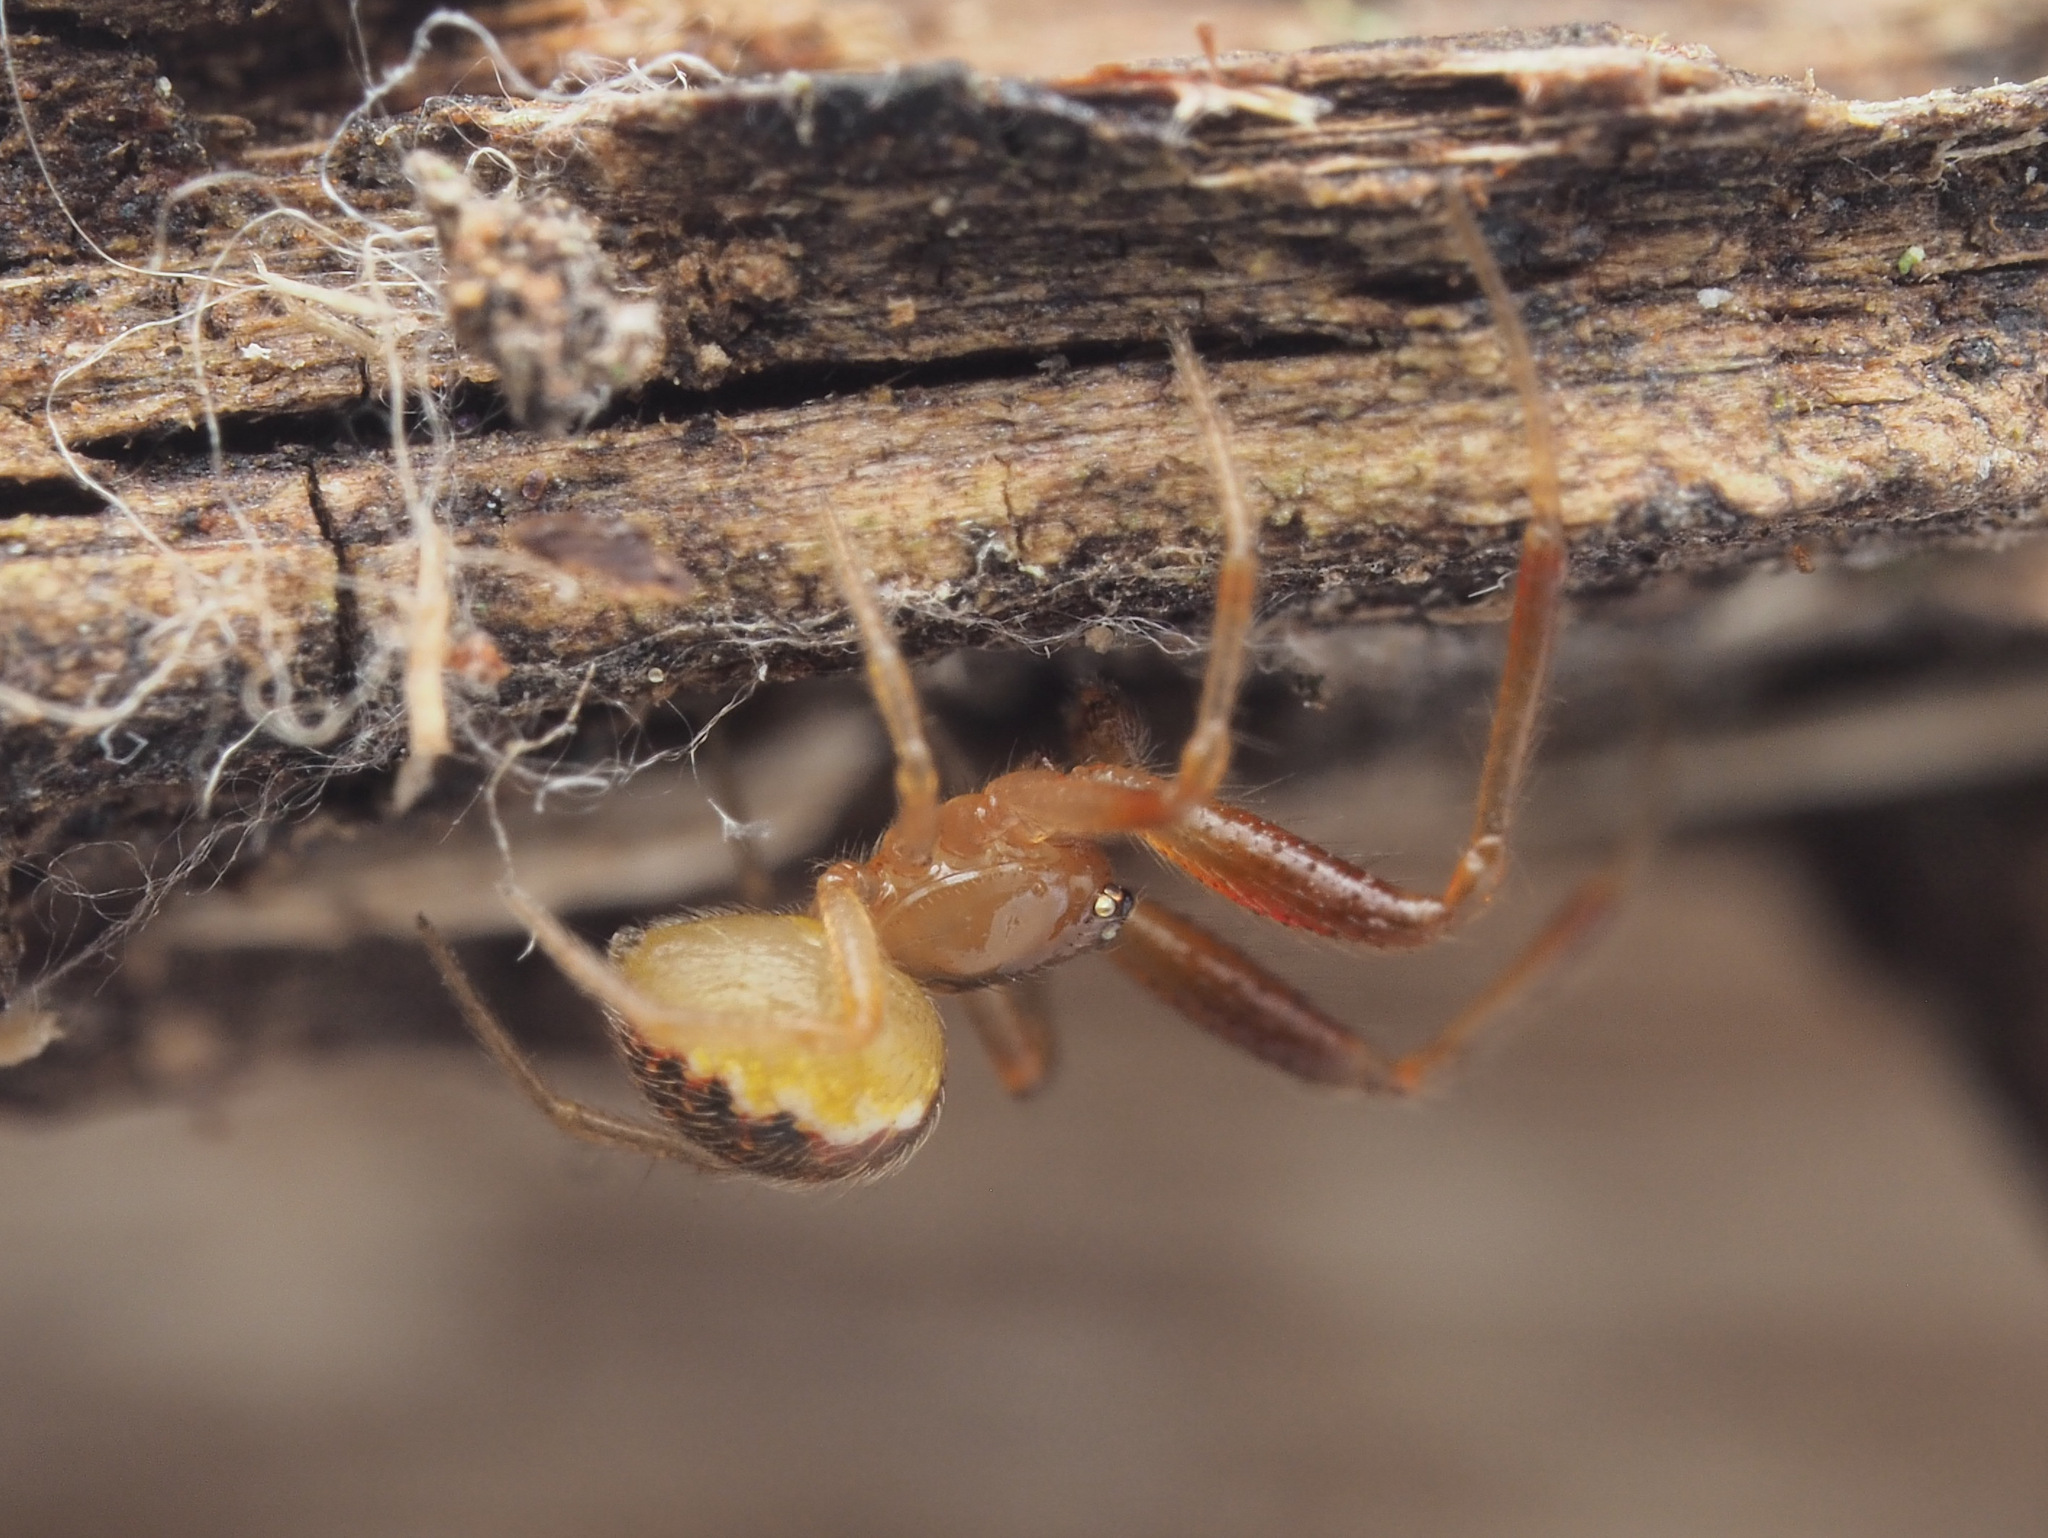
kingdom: Animalia
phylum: Arthropoda
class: Arachnida
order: Araneae
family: Theridiidae
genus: Anelosimus
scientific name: Anelosimus
